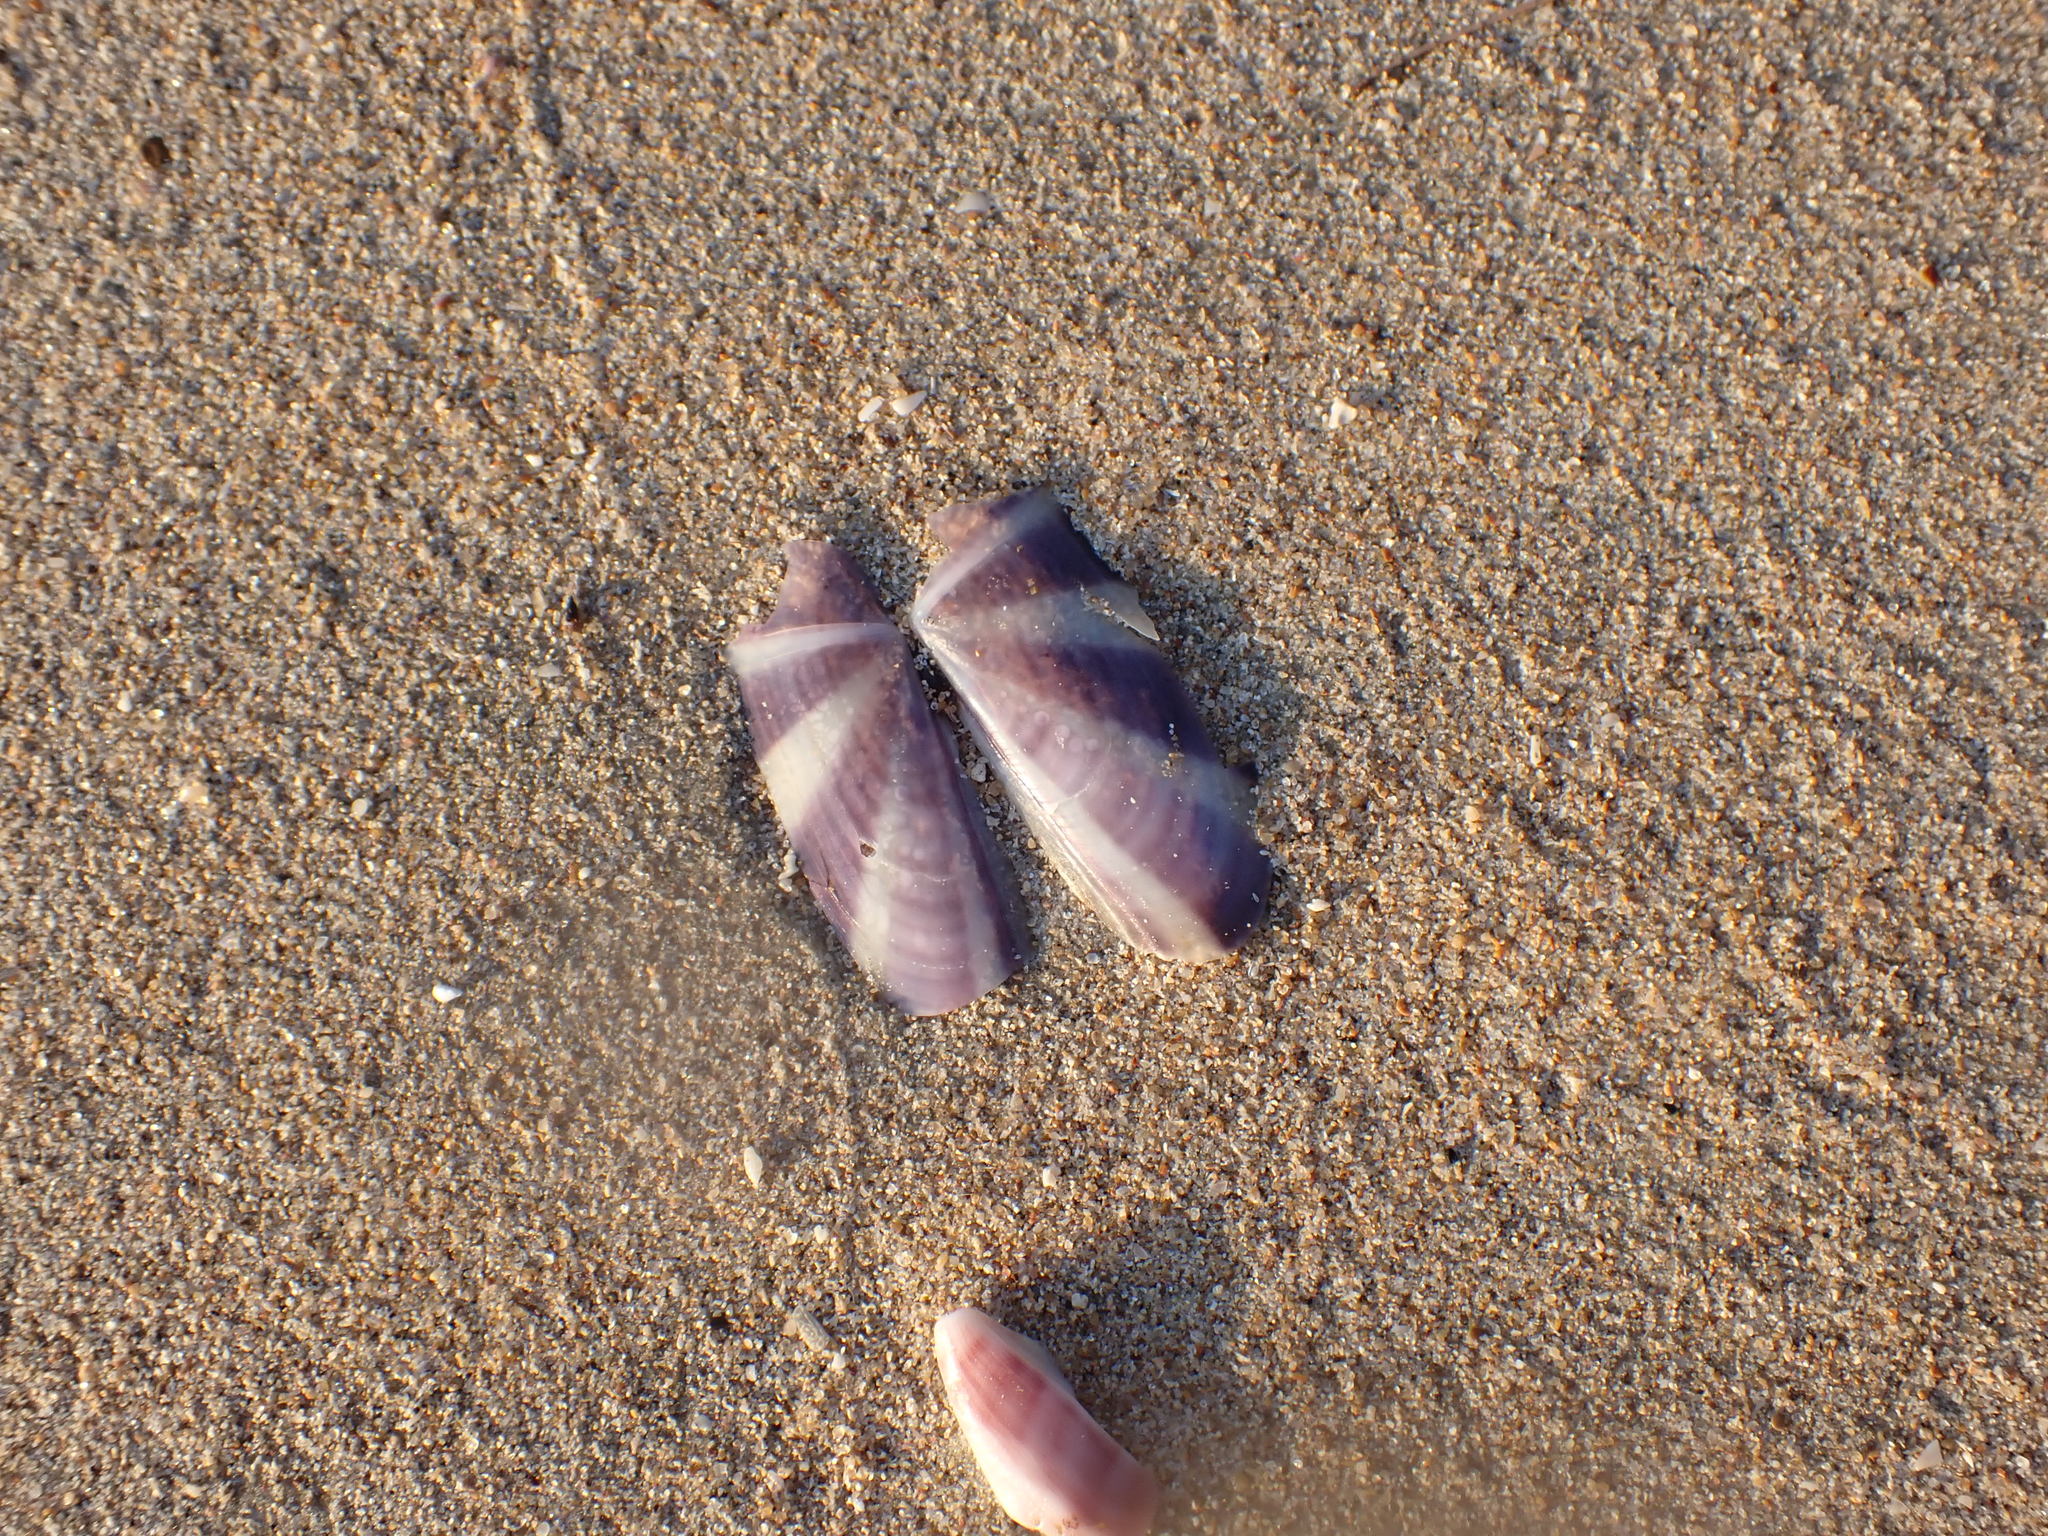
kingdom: Animalia
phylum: Mollusca
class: Bivalvia
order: Adapedonta
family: Pharidae
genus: Siliqua
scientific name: Siliqua radiata
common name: Sunset razor clam
